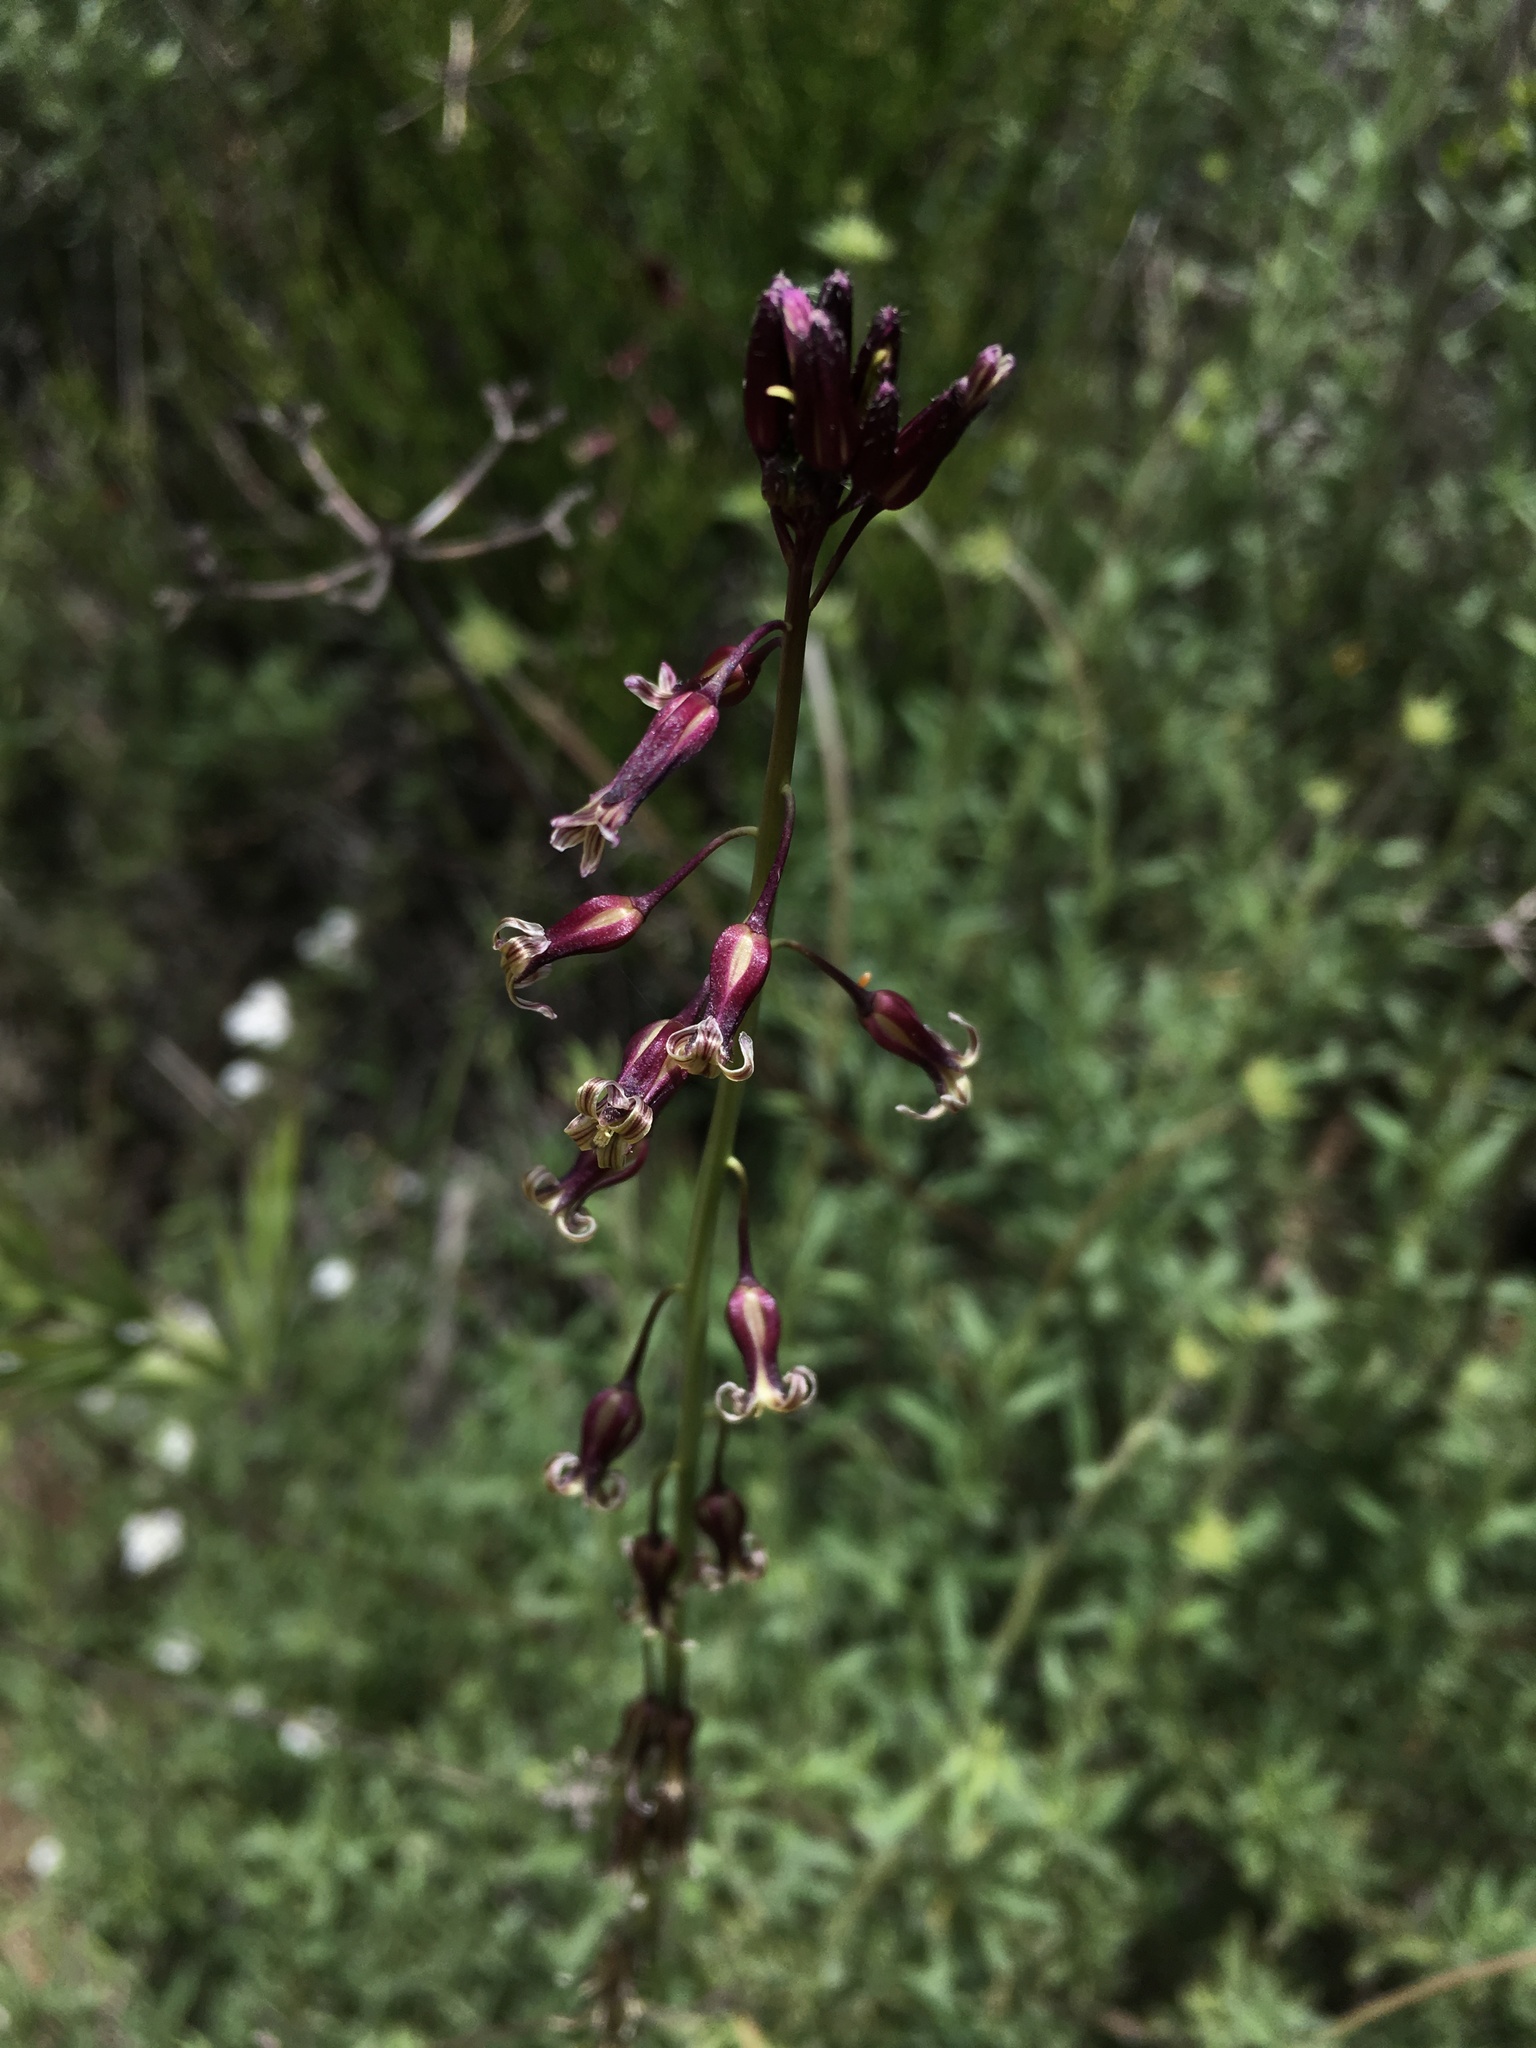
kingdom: Plantae
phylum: Tracheophyta
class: Magnoliopsida
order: Brassicales
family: Brassicaceae
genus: Streptanthus
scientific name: Streptanthus heterophyllus
